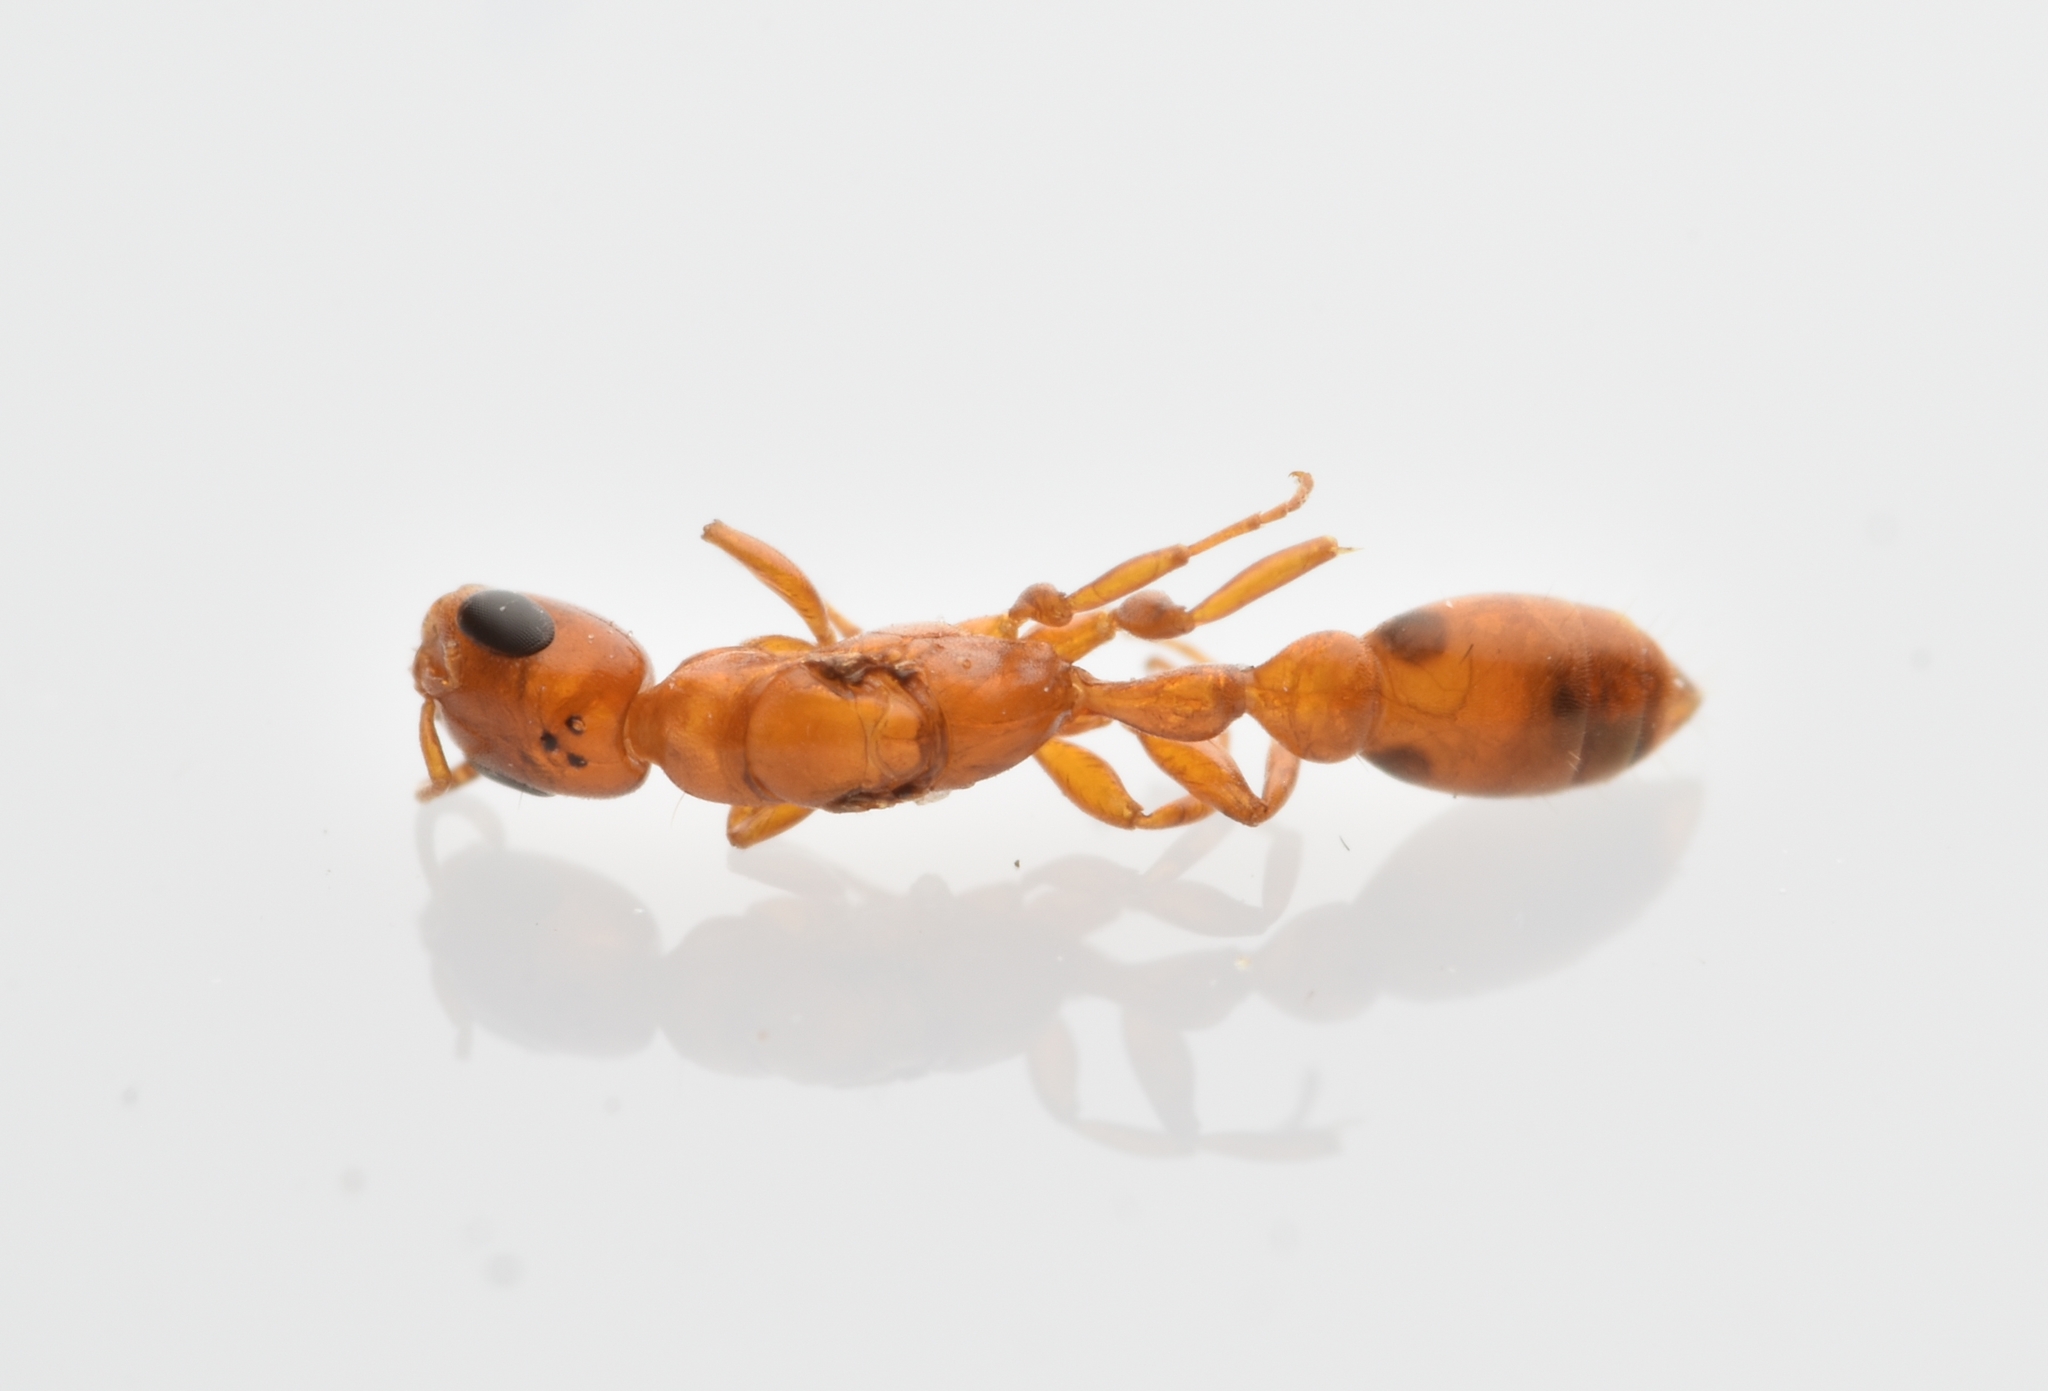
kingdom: Animalia
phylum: Arthropoda
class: Insecta
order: Hymenoptera
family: Formicidae
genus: Pseudomyrmex
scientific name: Pseudomyrmex pallidus
